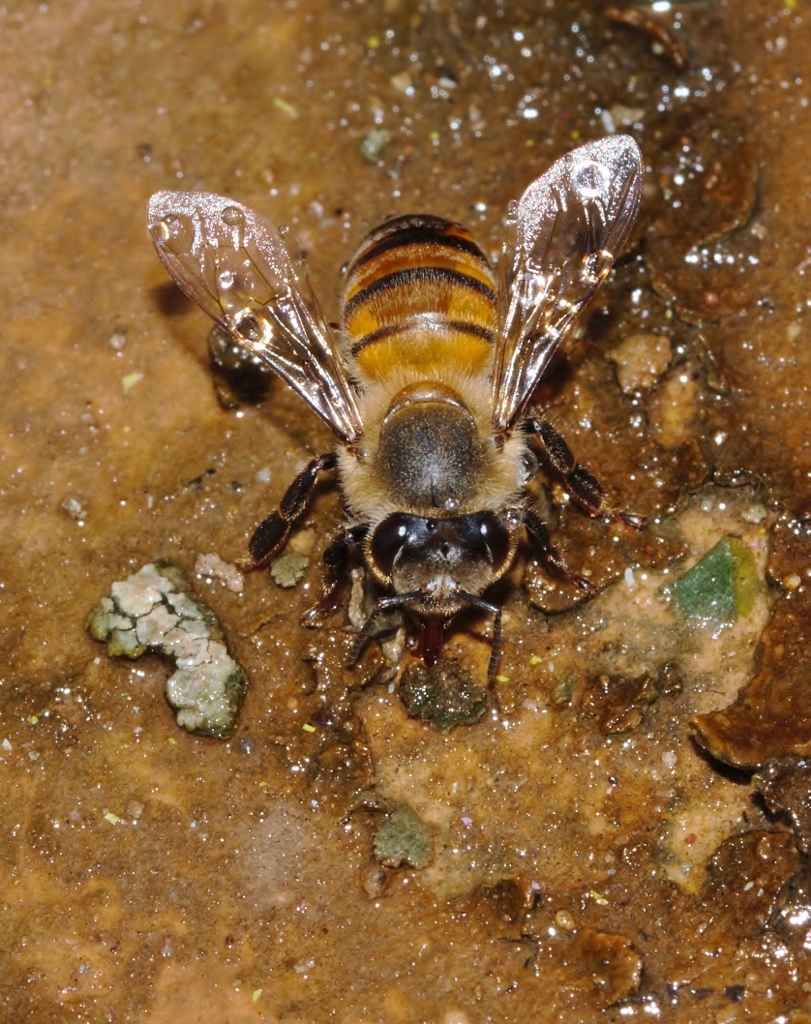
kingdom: Animalia
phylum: Arthropoda
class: Insecta
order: Hymenoptera
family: Apidae
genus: Apis
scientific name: Apis mellifera
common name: Honey bee
